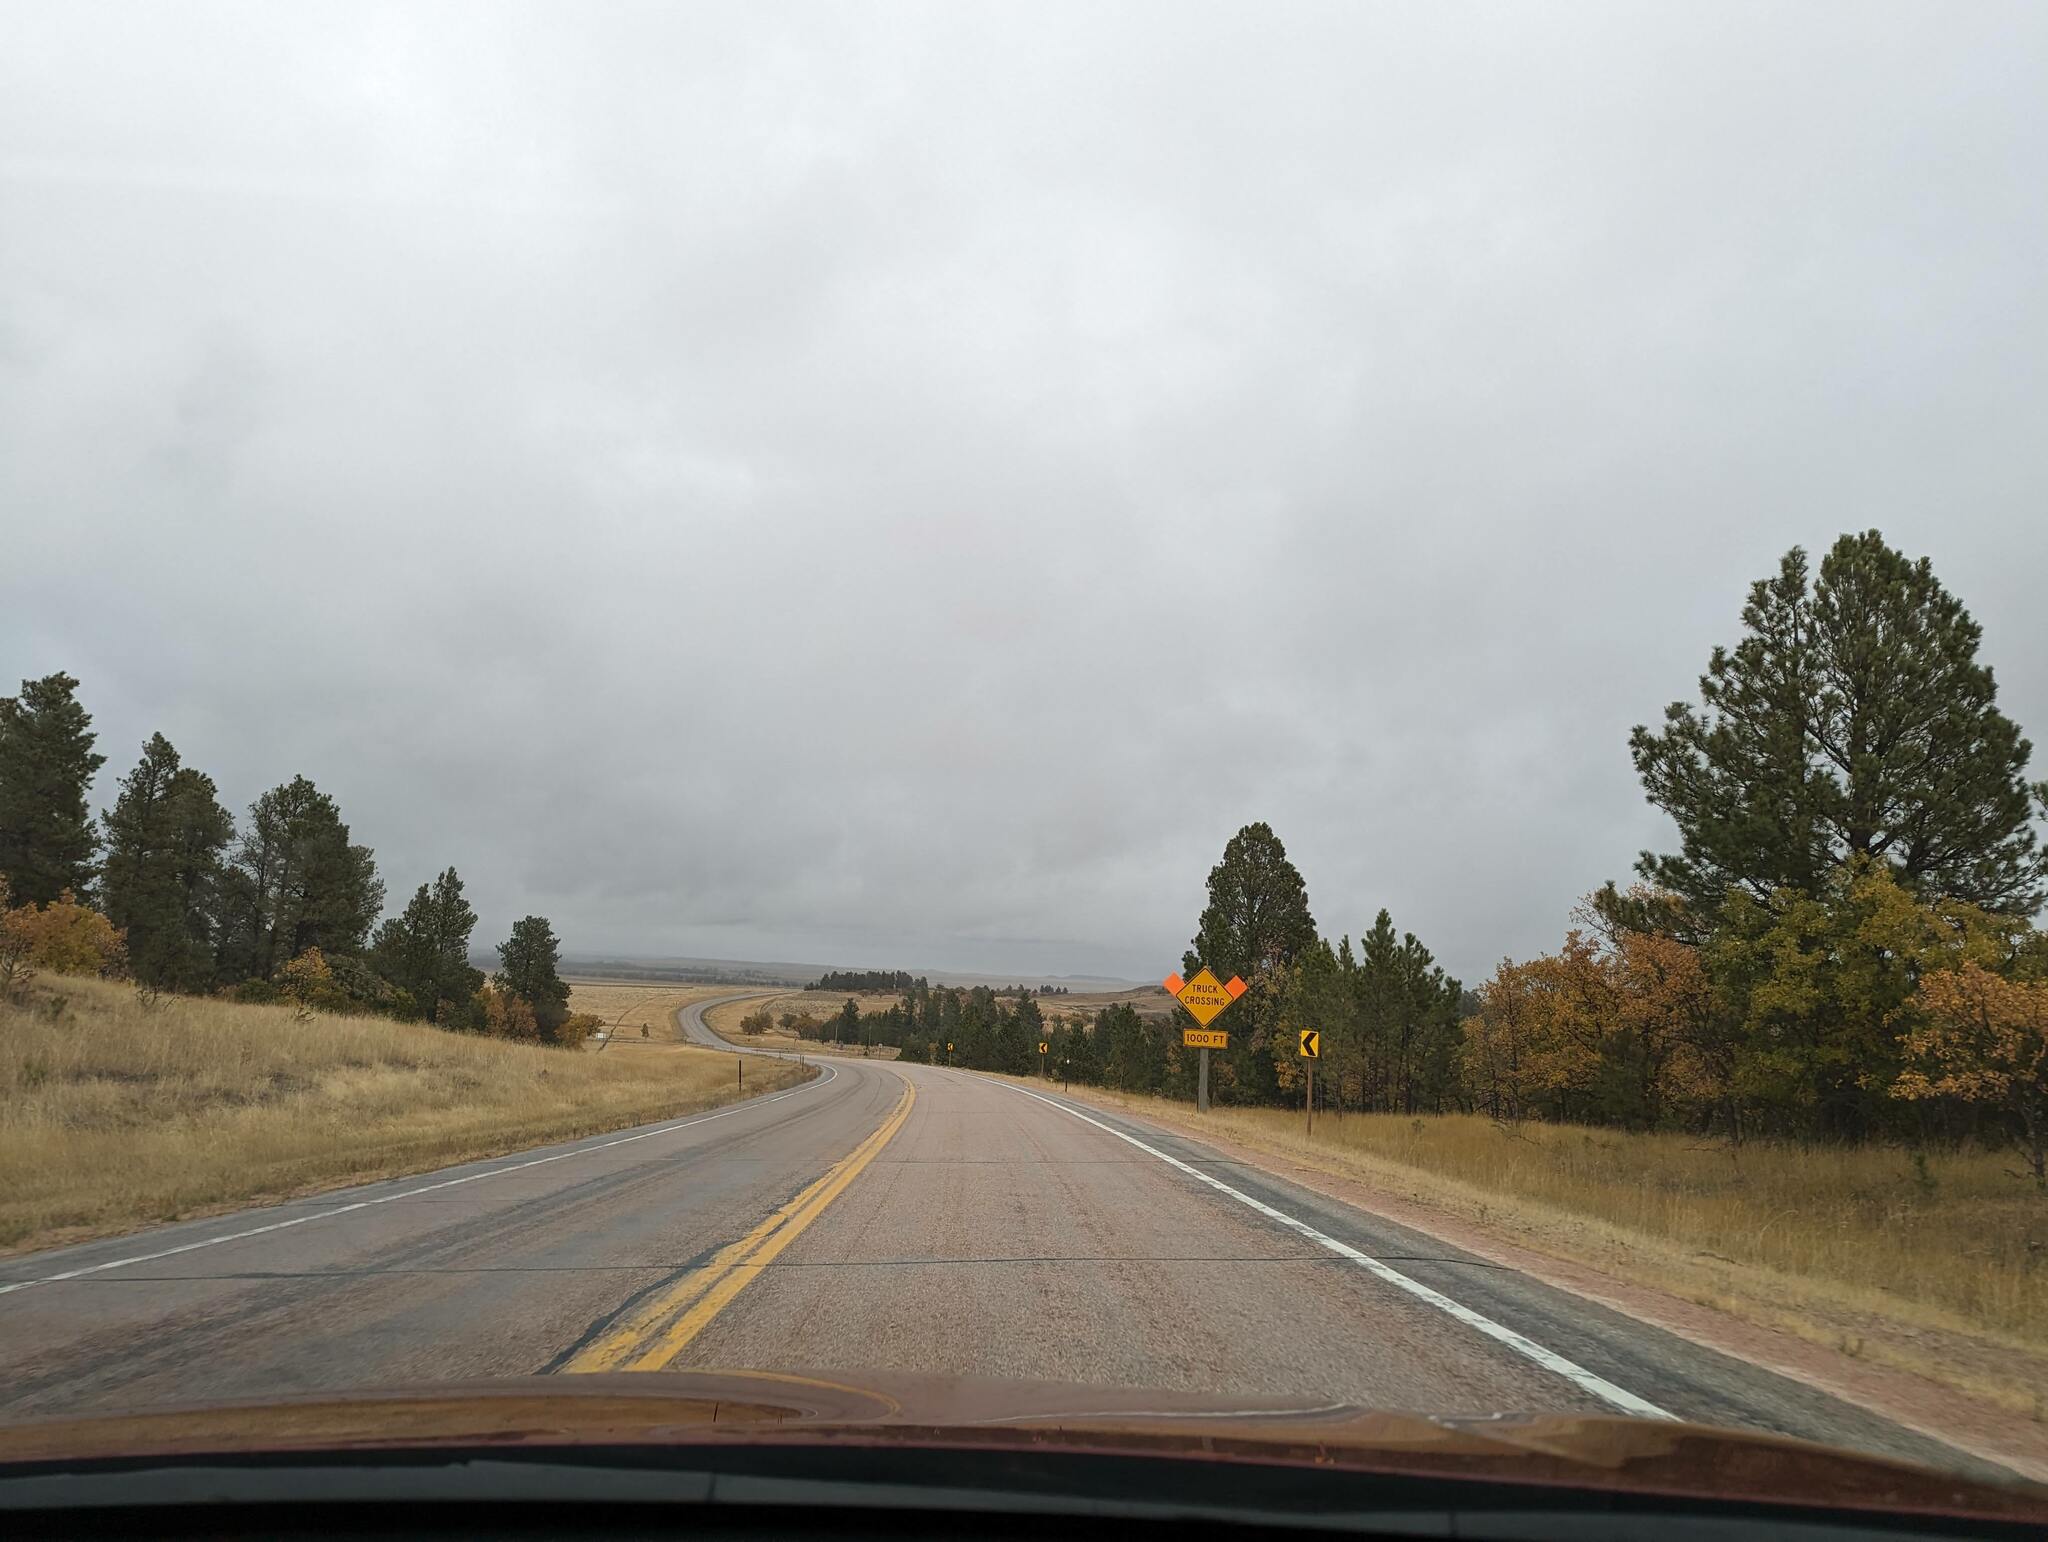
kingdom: Plantae
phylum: Tracheophyta
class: Pinopsida
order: Pinales
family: Pinaceae
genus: Pinus
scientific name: Pinus ponderosa
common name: Western yellow-pine
